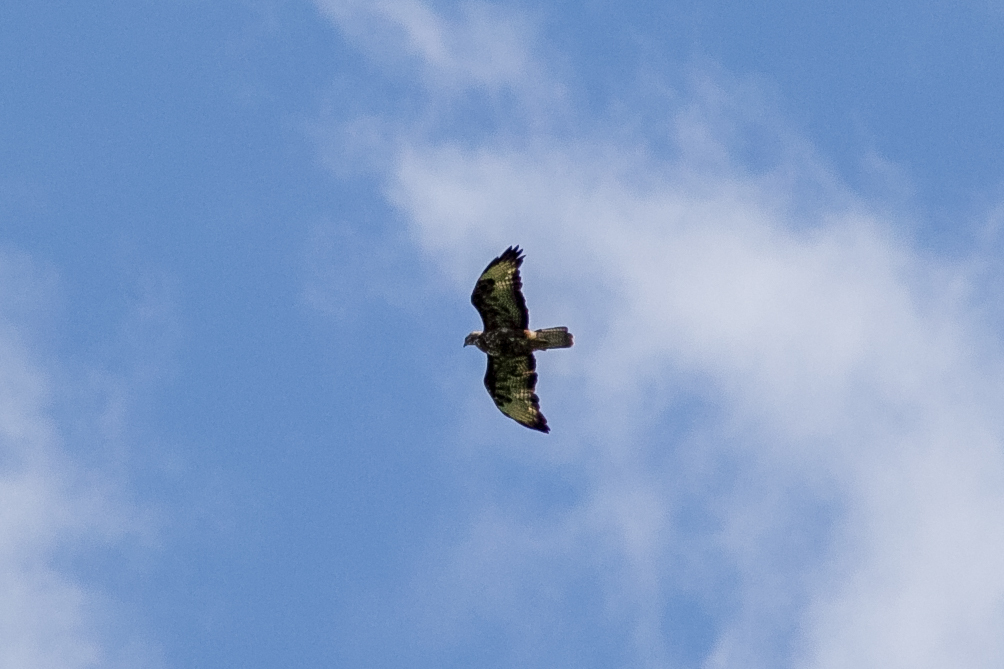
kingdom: Animalia
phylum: Chordata
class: Aves
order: Accipitriformes
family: Accipitridae
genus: Buteo
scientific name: Buteo buteo
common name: Common buzzard
